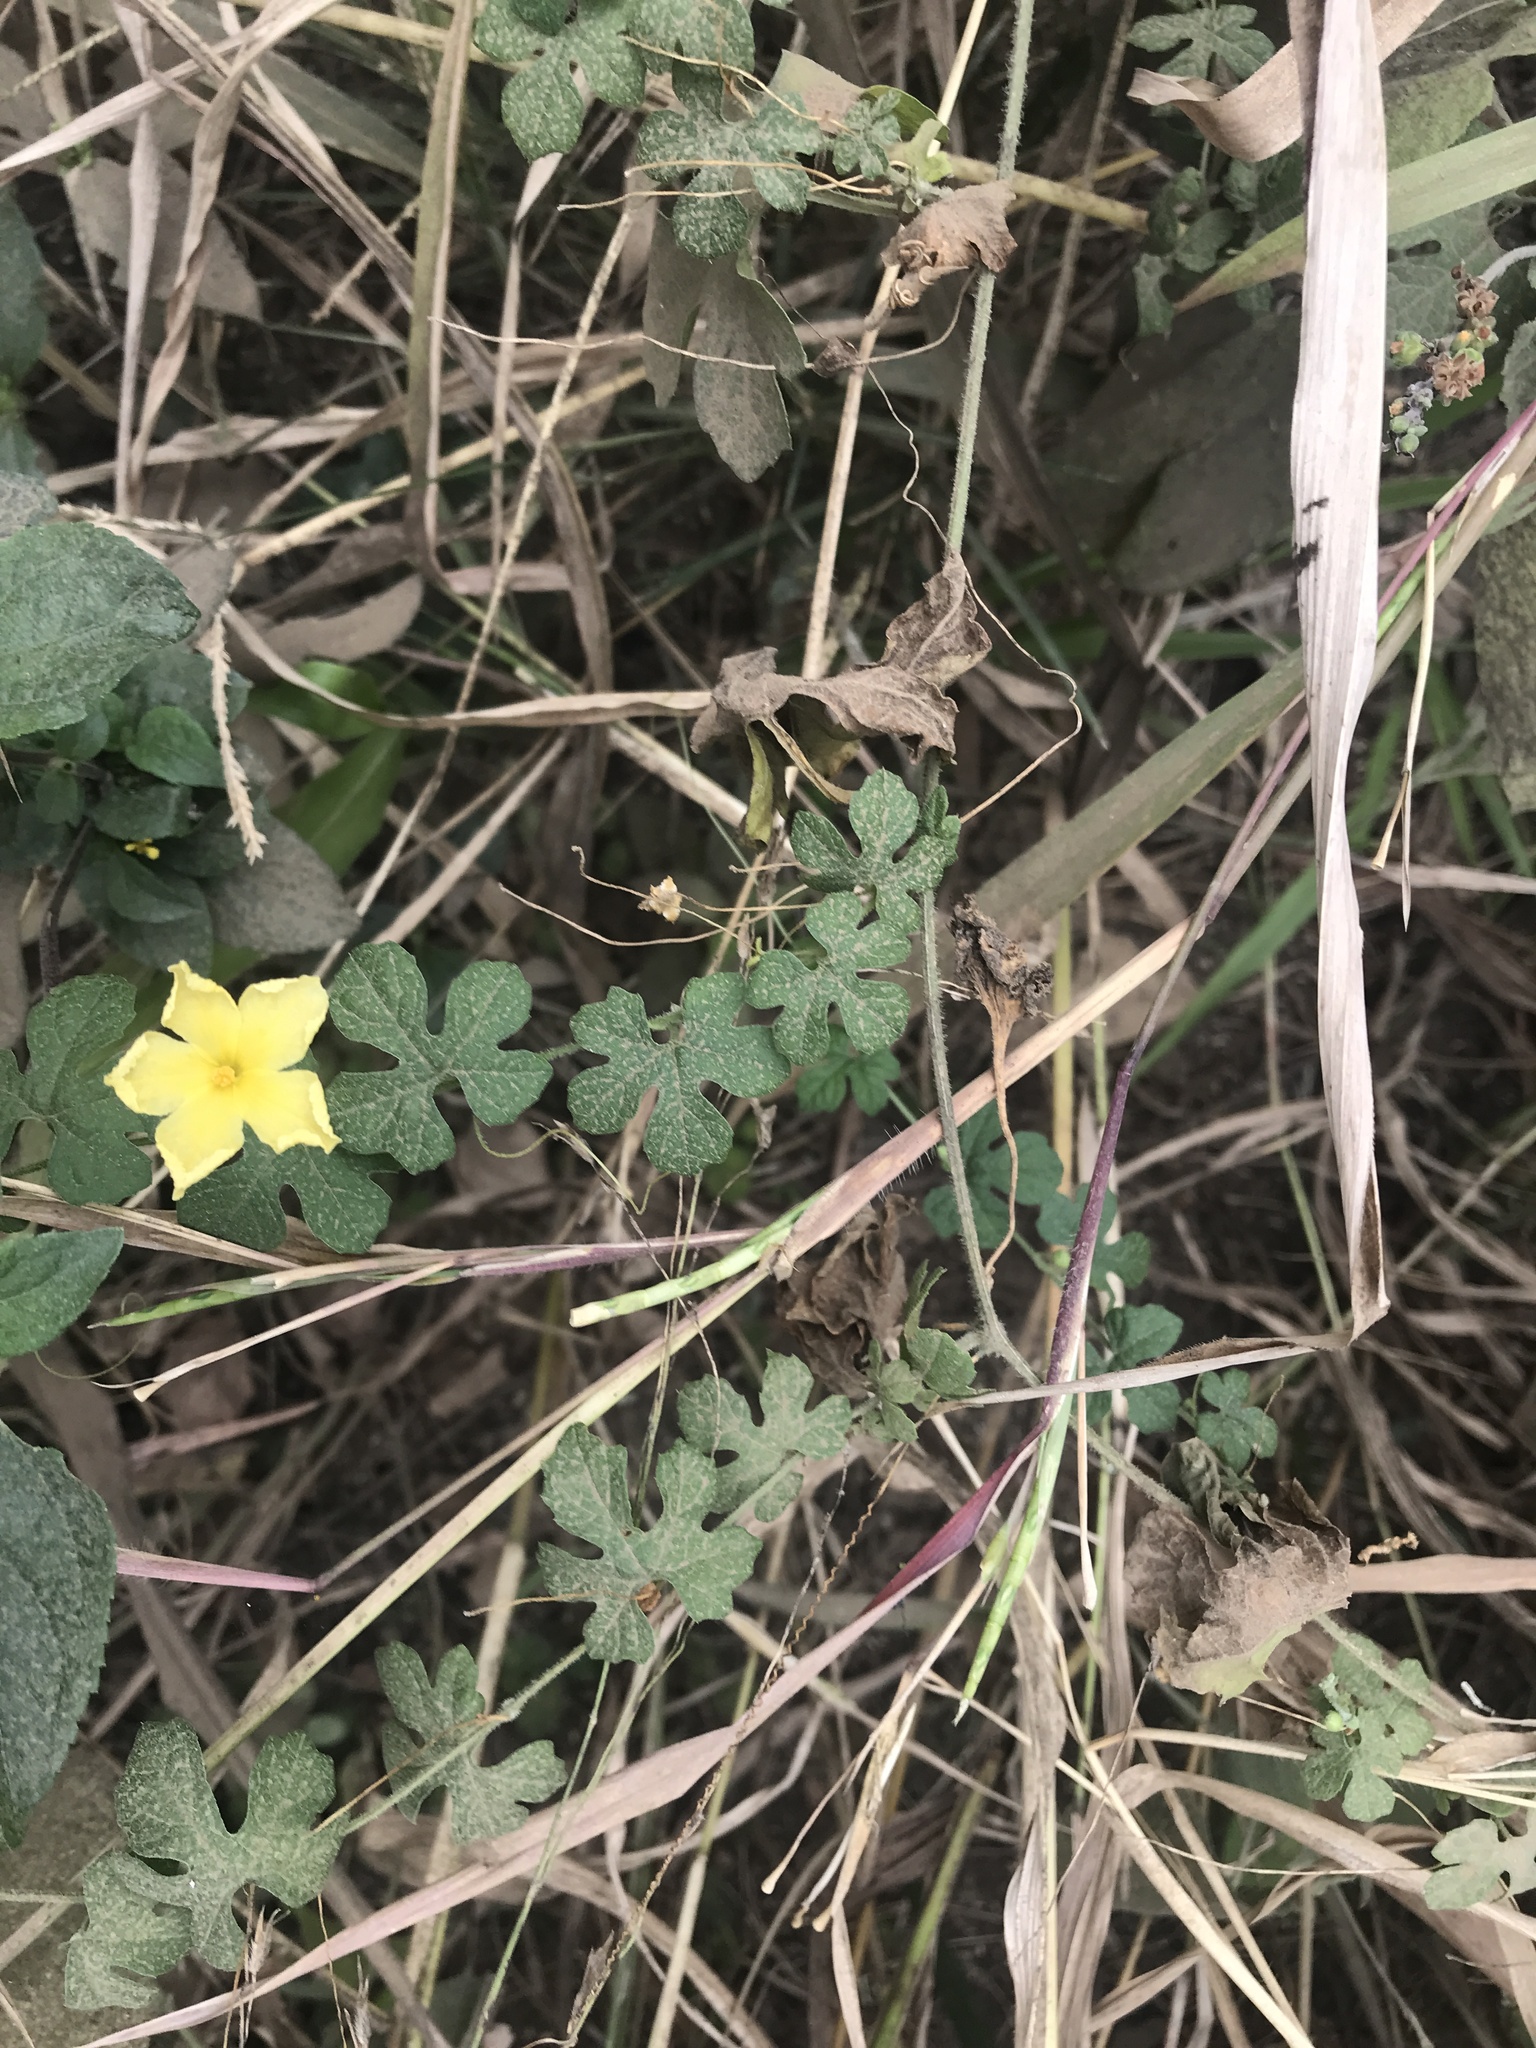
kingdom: Plantae
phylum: Tracheophyta
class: Magnoliopsida
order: Cucurbitales
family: Cucurbitaceae
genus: Momordica
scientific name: Momordica charantia
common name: Balsampear
